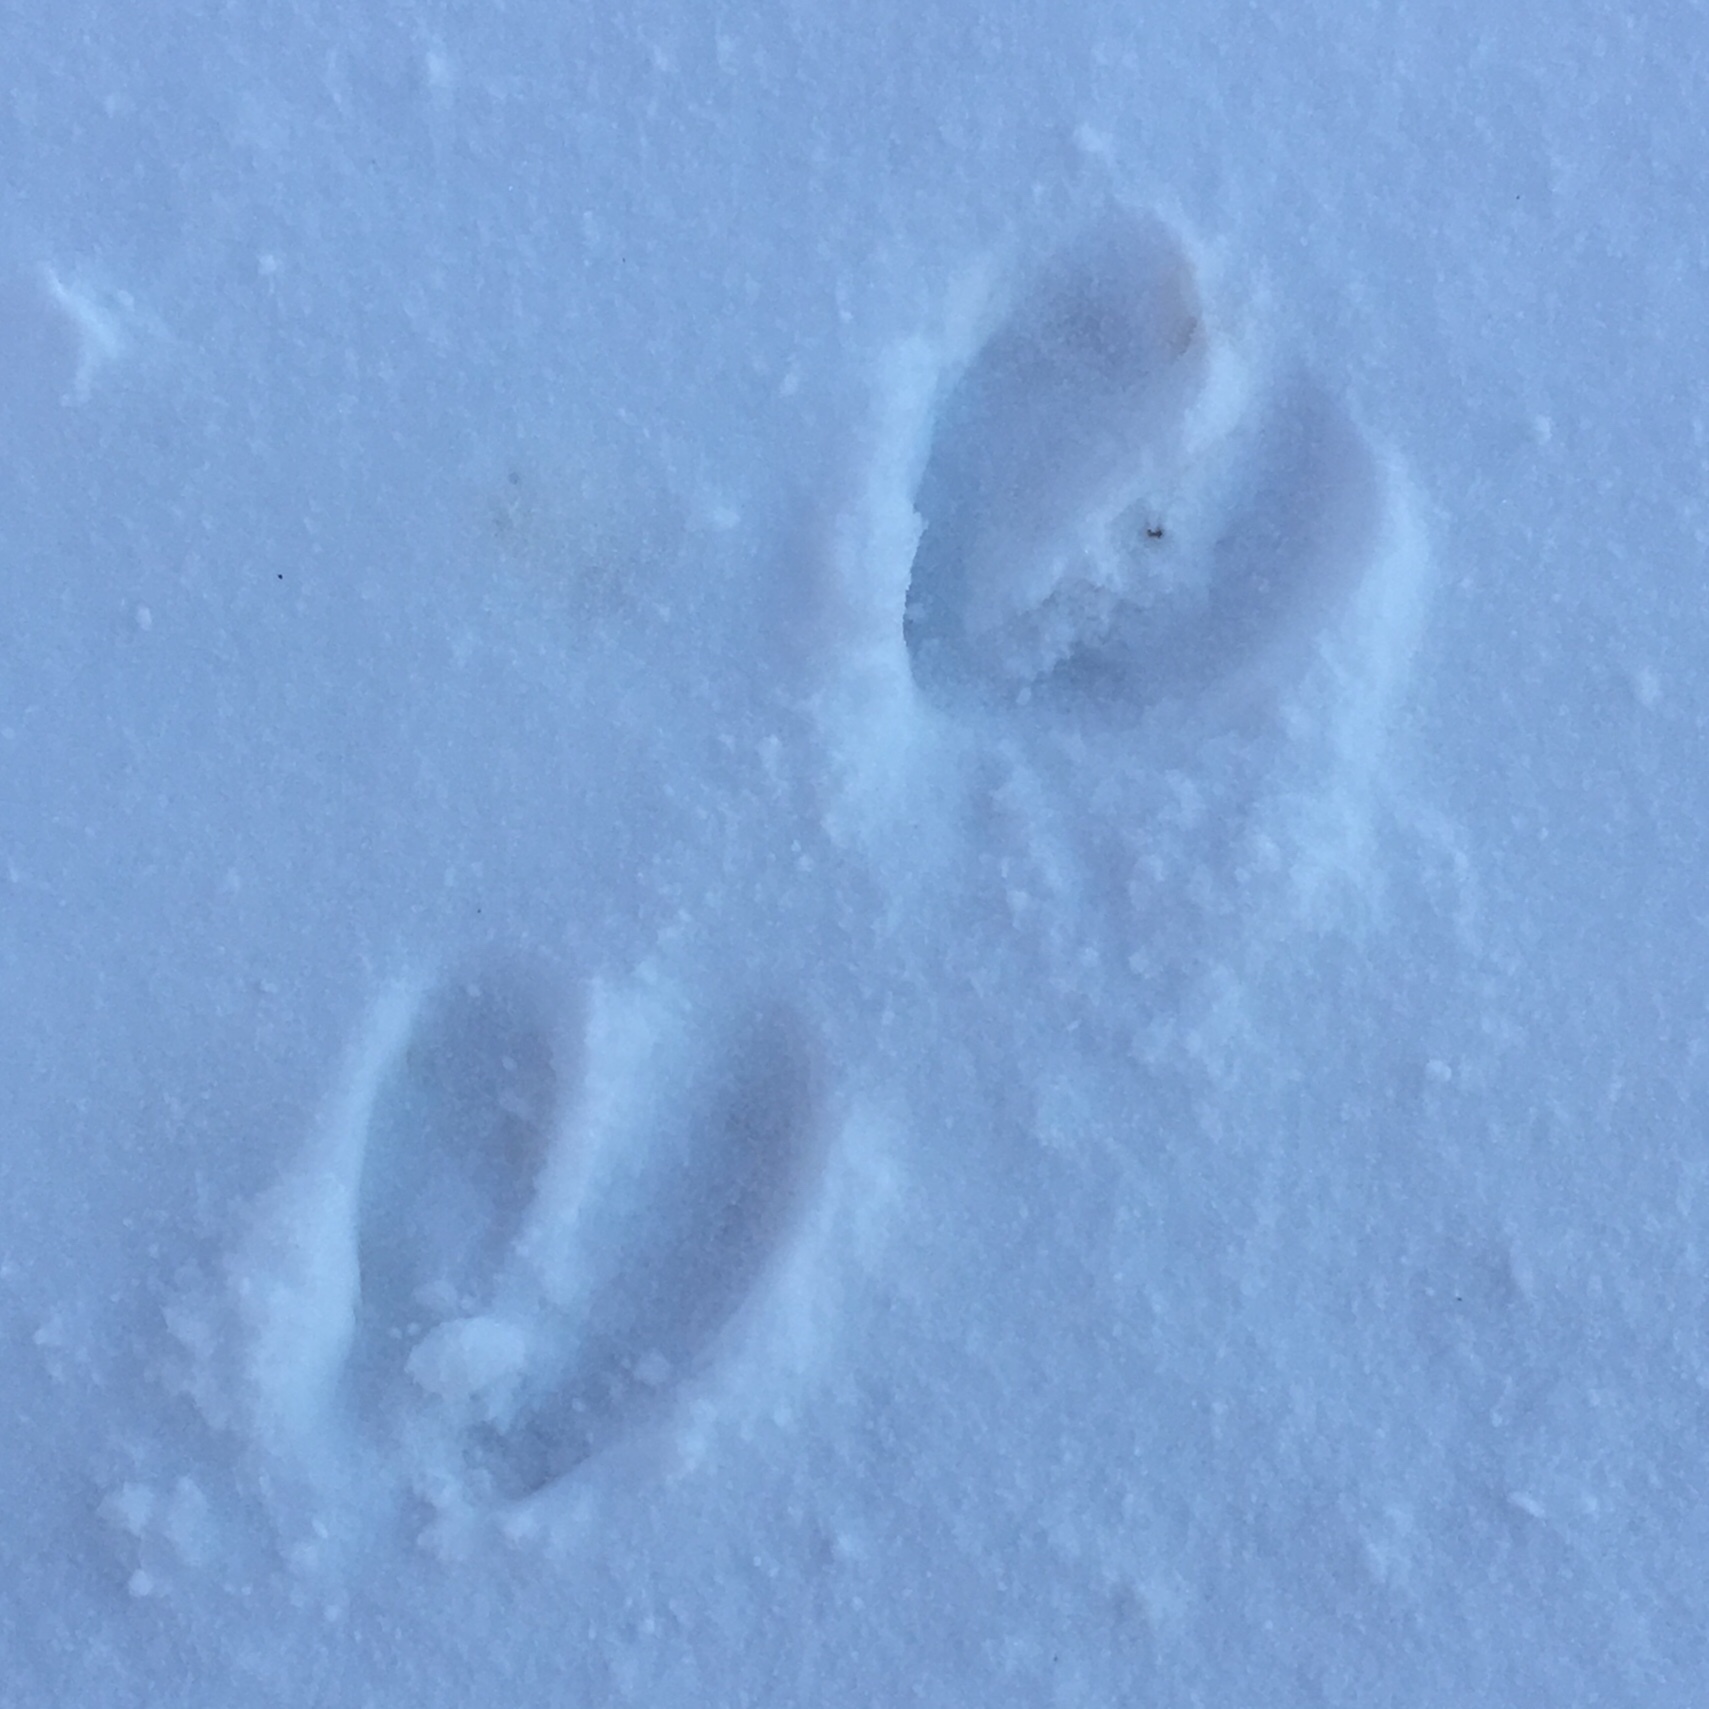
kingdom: Animalia
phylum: Chordata
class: Mammalia
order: Artiodactyla
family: Cervidae
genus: Odocoileus
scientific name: Odocoileus virginianus
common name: White-tailed deer
